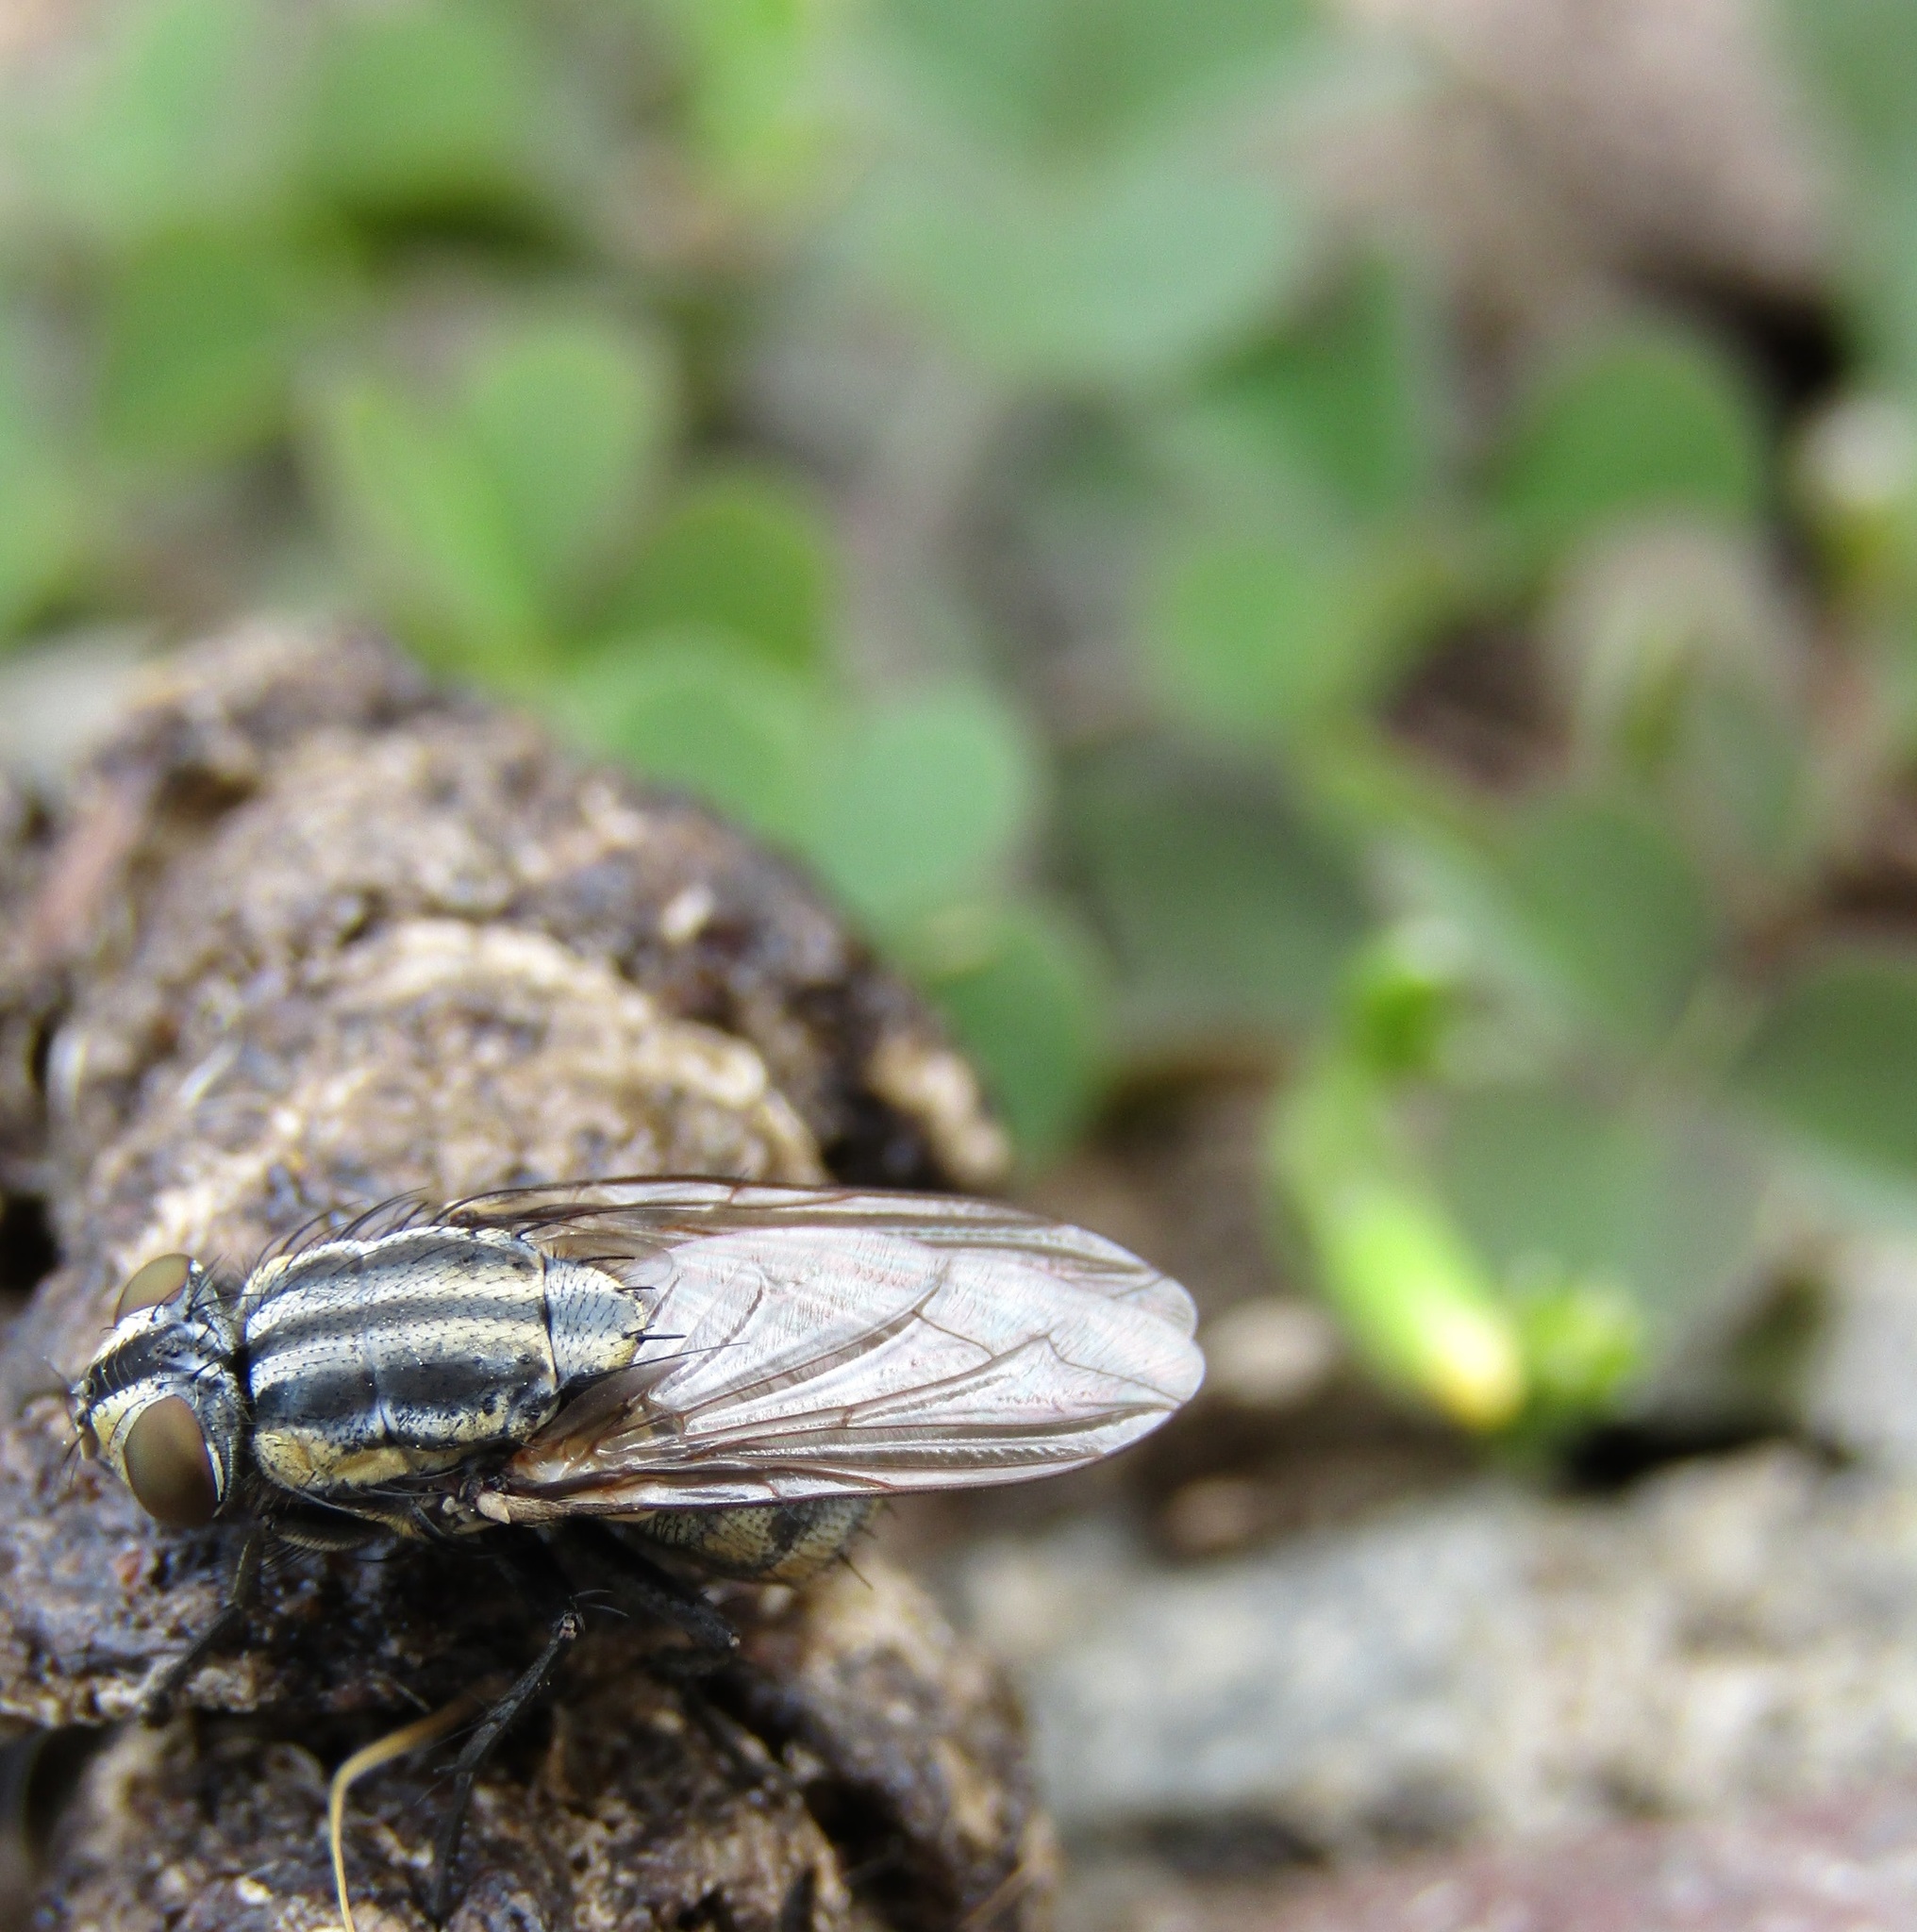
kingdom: Animalia
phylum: Arthropoda
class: Insecta
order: Diptera
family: Sarcophagidae
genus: Oxysarcodexia
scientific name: Oxysarcodexia varia
